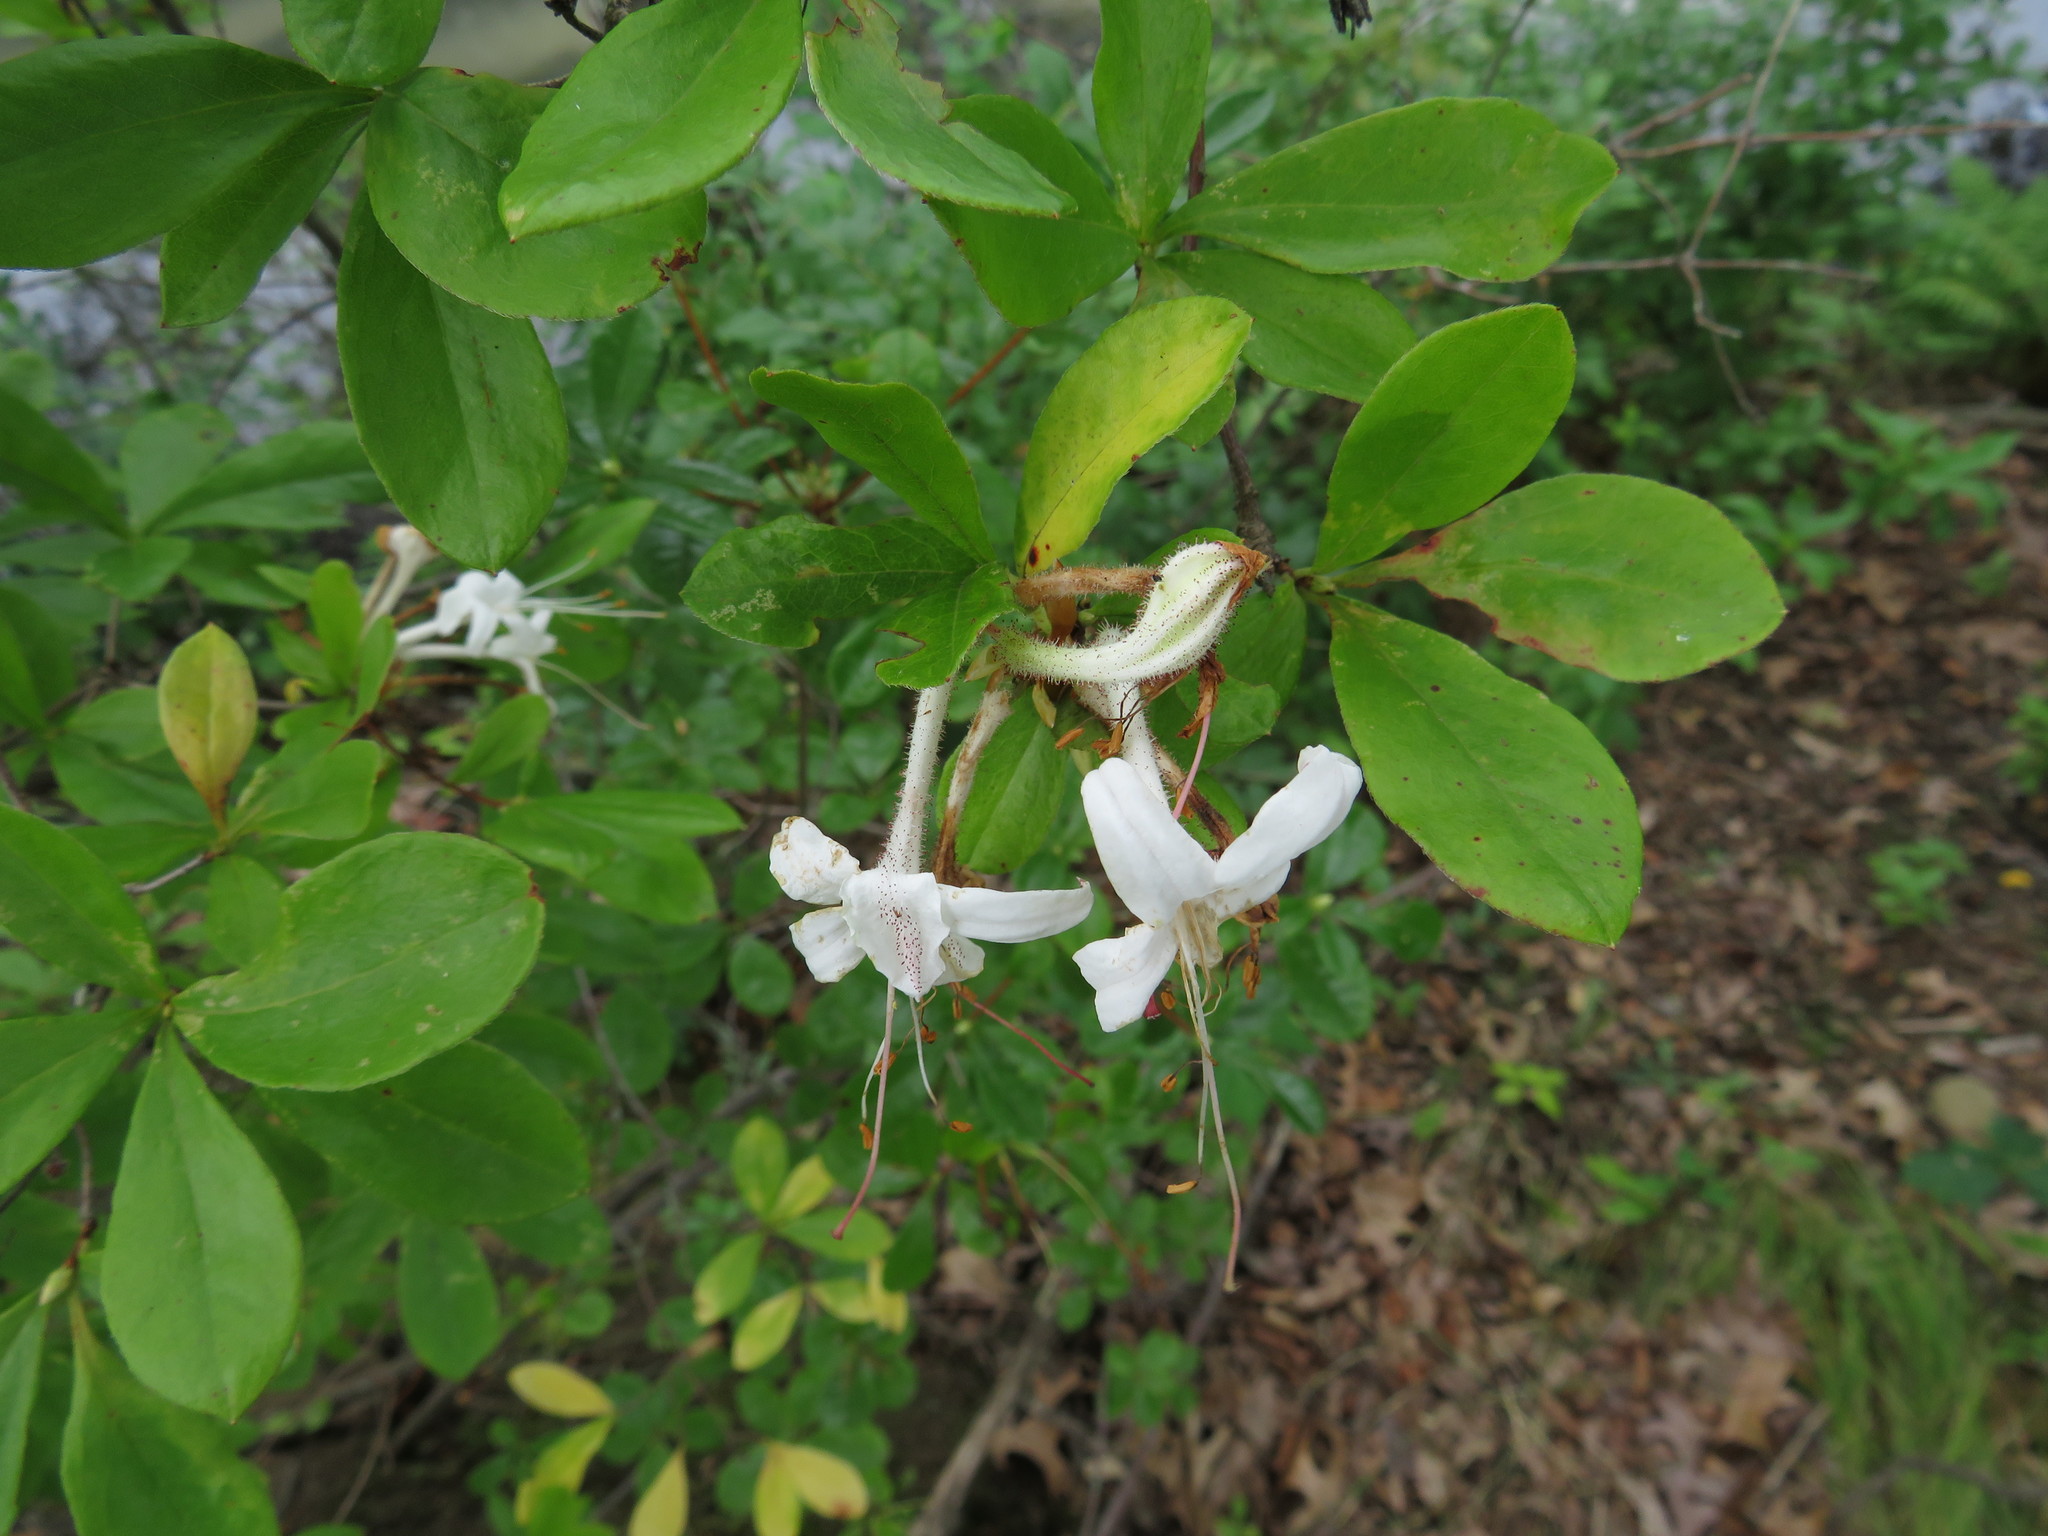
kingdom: Plantae
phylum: Tracheophyta
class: Magnoliopsida
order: Ericales
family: Ericaceae
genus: Rhododendron
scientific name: Rhododendron viscosum
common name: Clammy azalea
